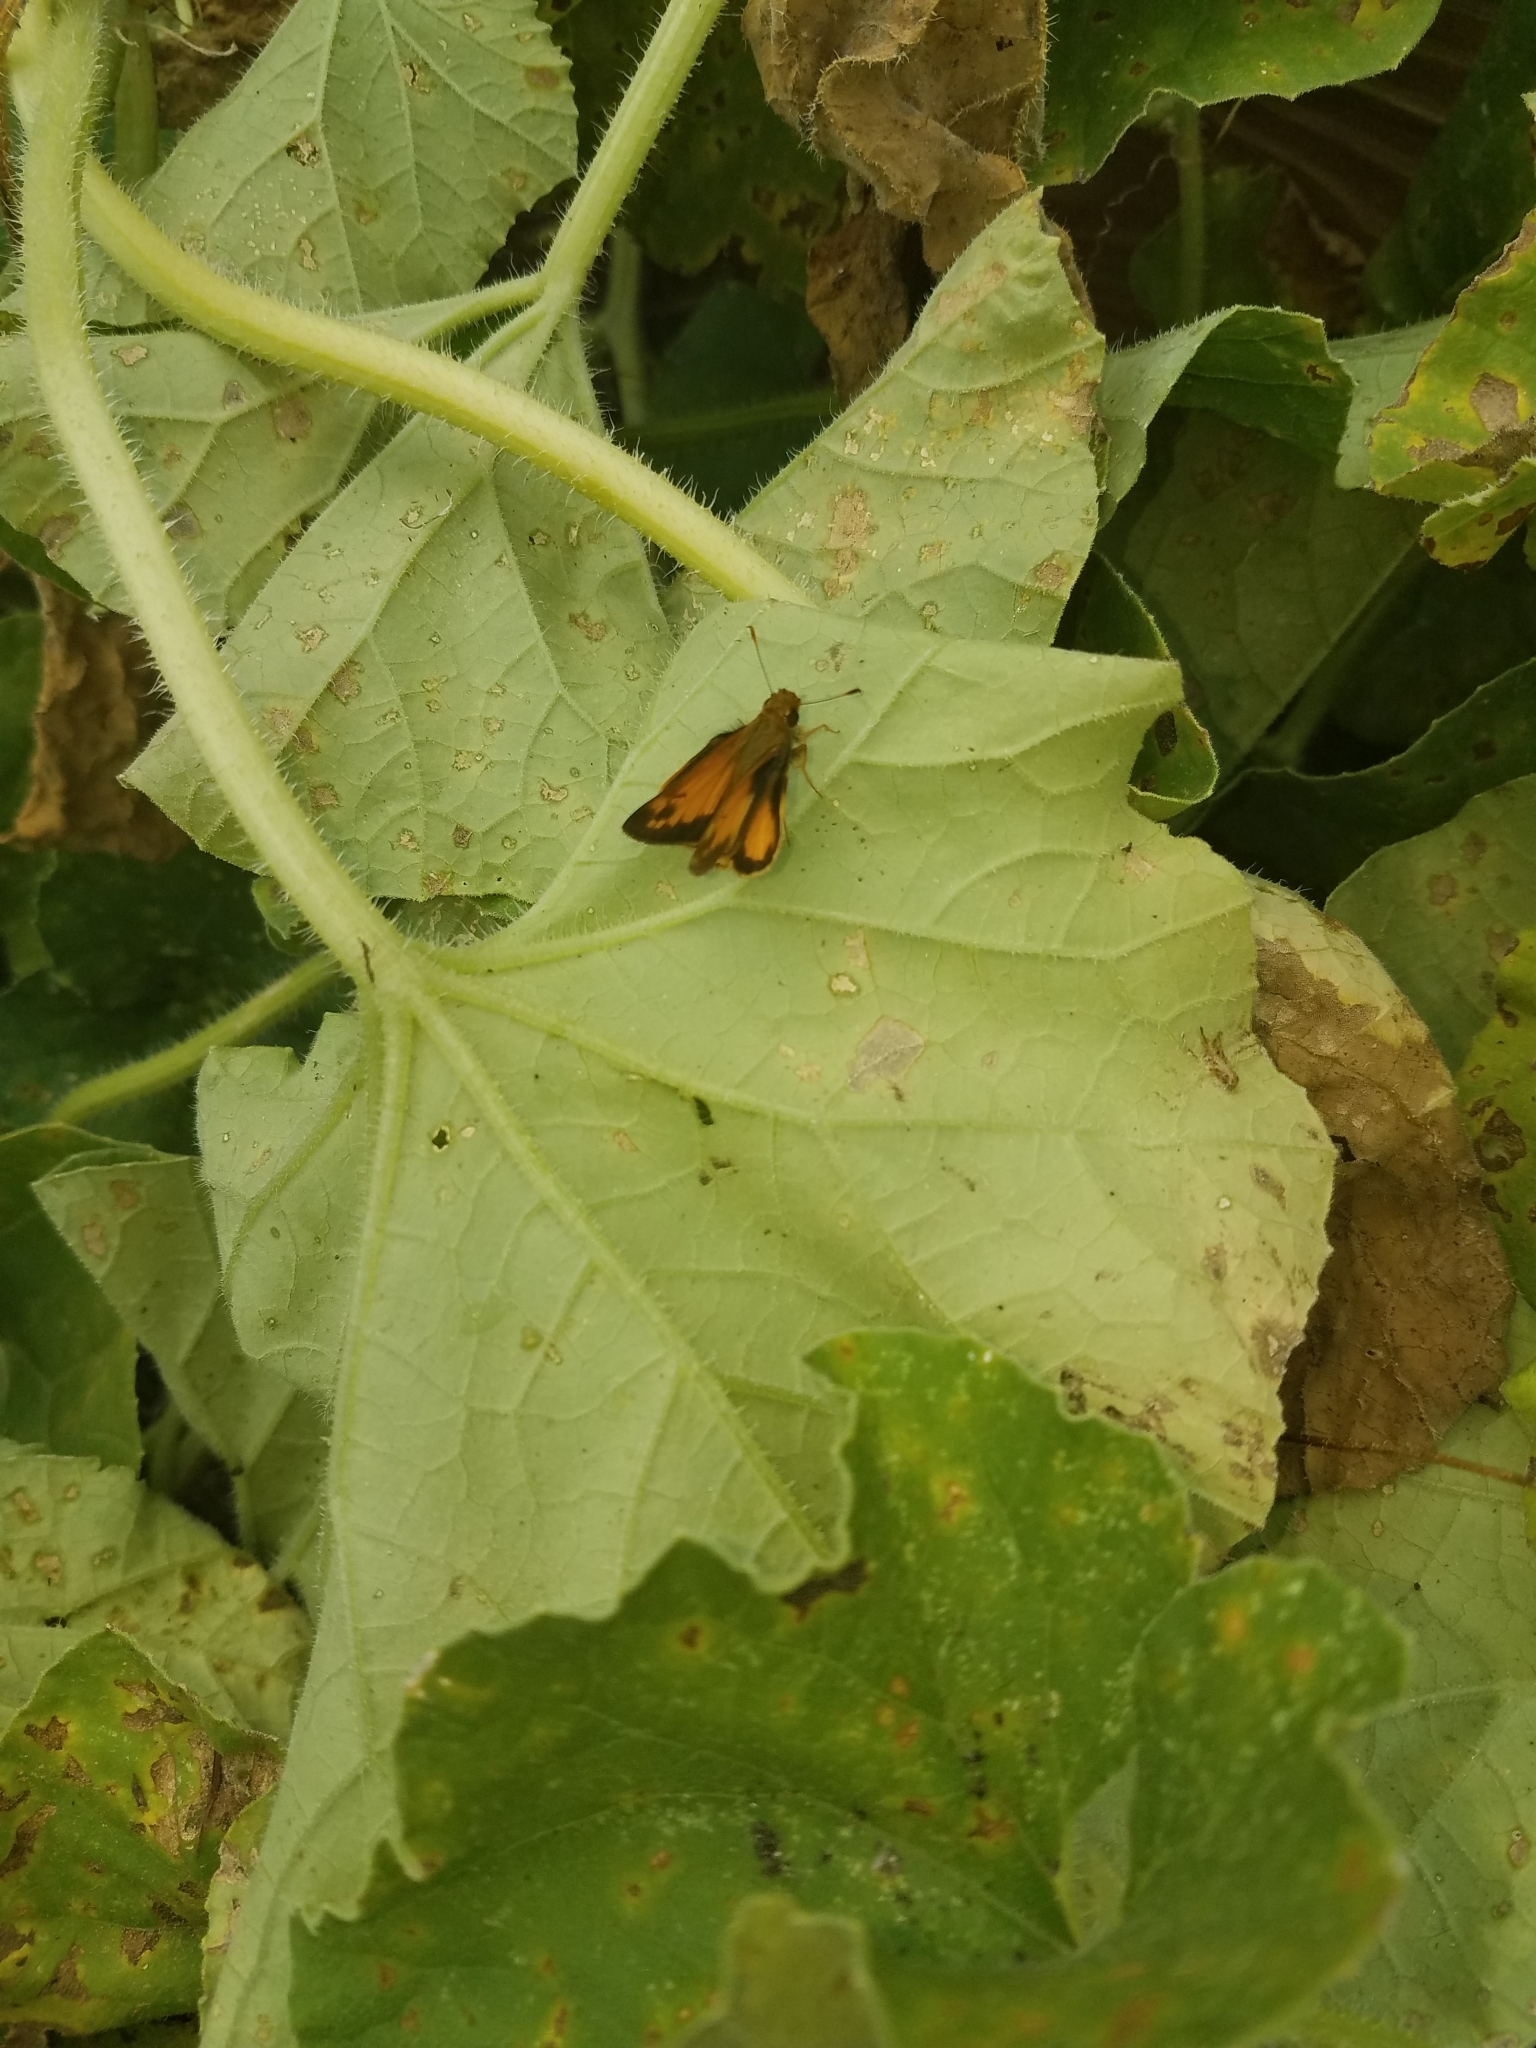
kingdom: Animalia
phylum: Arthropoda
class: Insecta
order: Lepidoptera
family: Hesperiidae
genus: Lon
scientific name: Lon zabulon
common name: Zabulon skipper
